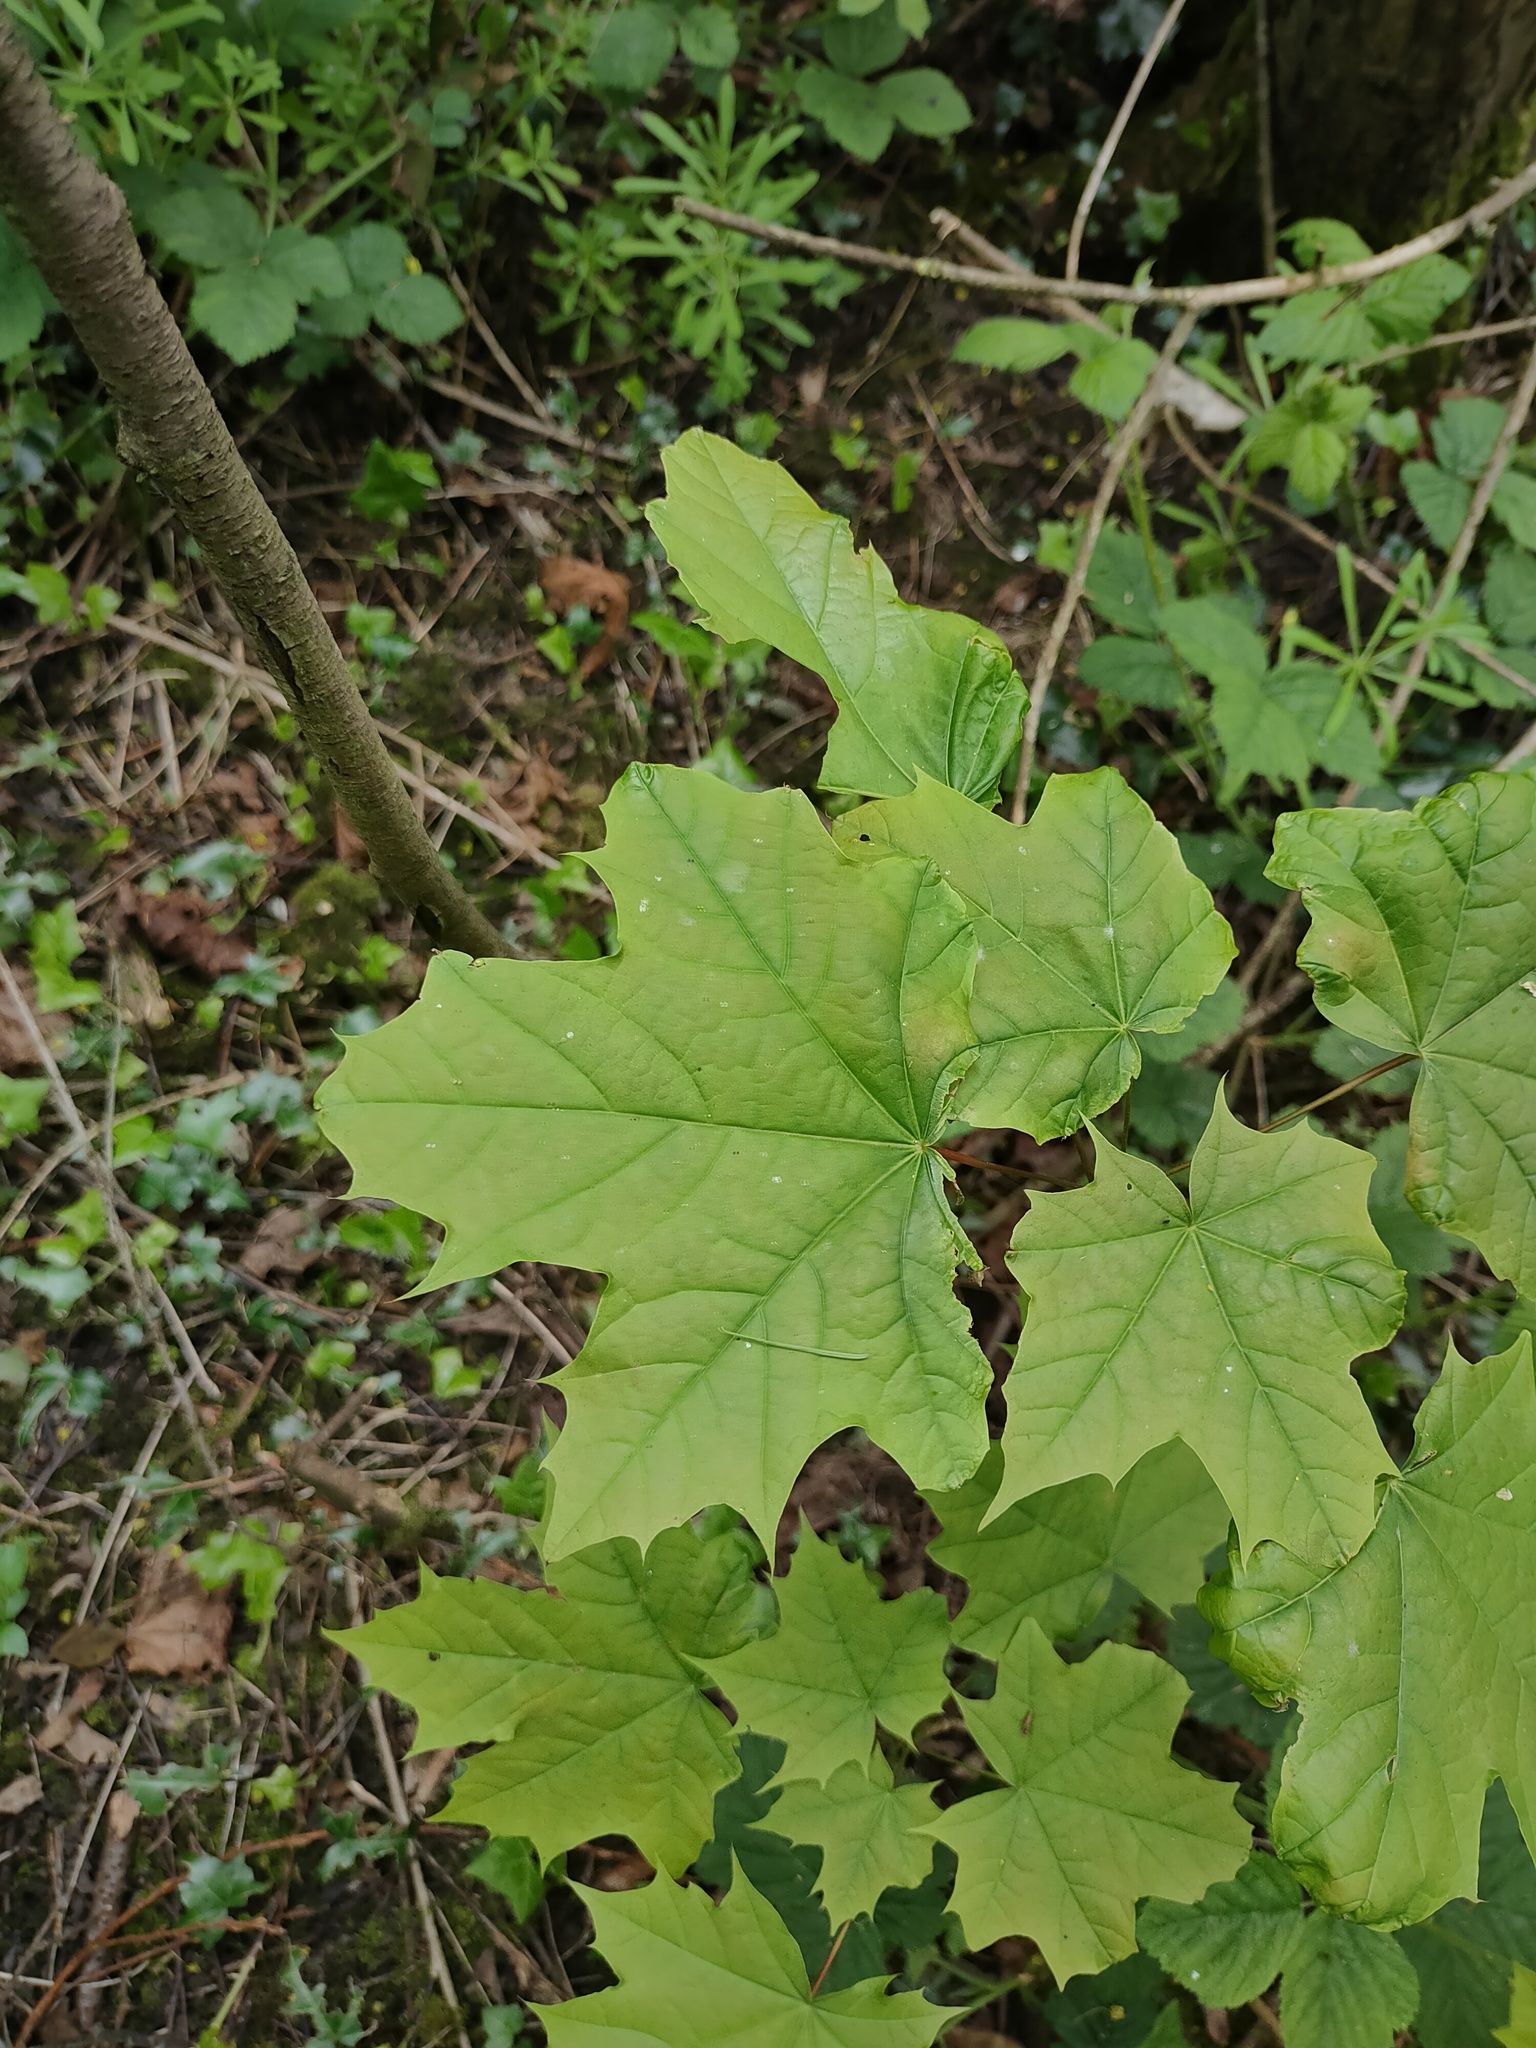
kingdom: Plantae
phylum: Tracheophyta
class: Magnoliopsida
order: Sapindales
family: Sapindaceae
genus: Acer
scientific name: Acer platanoides
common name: Norway maple
